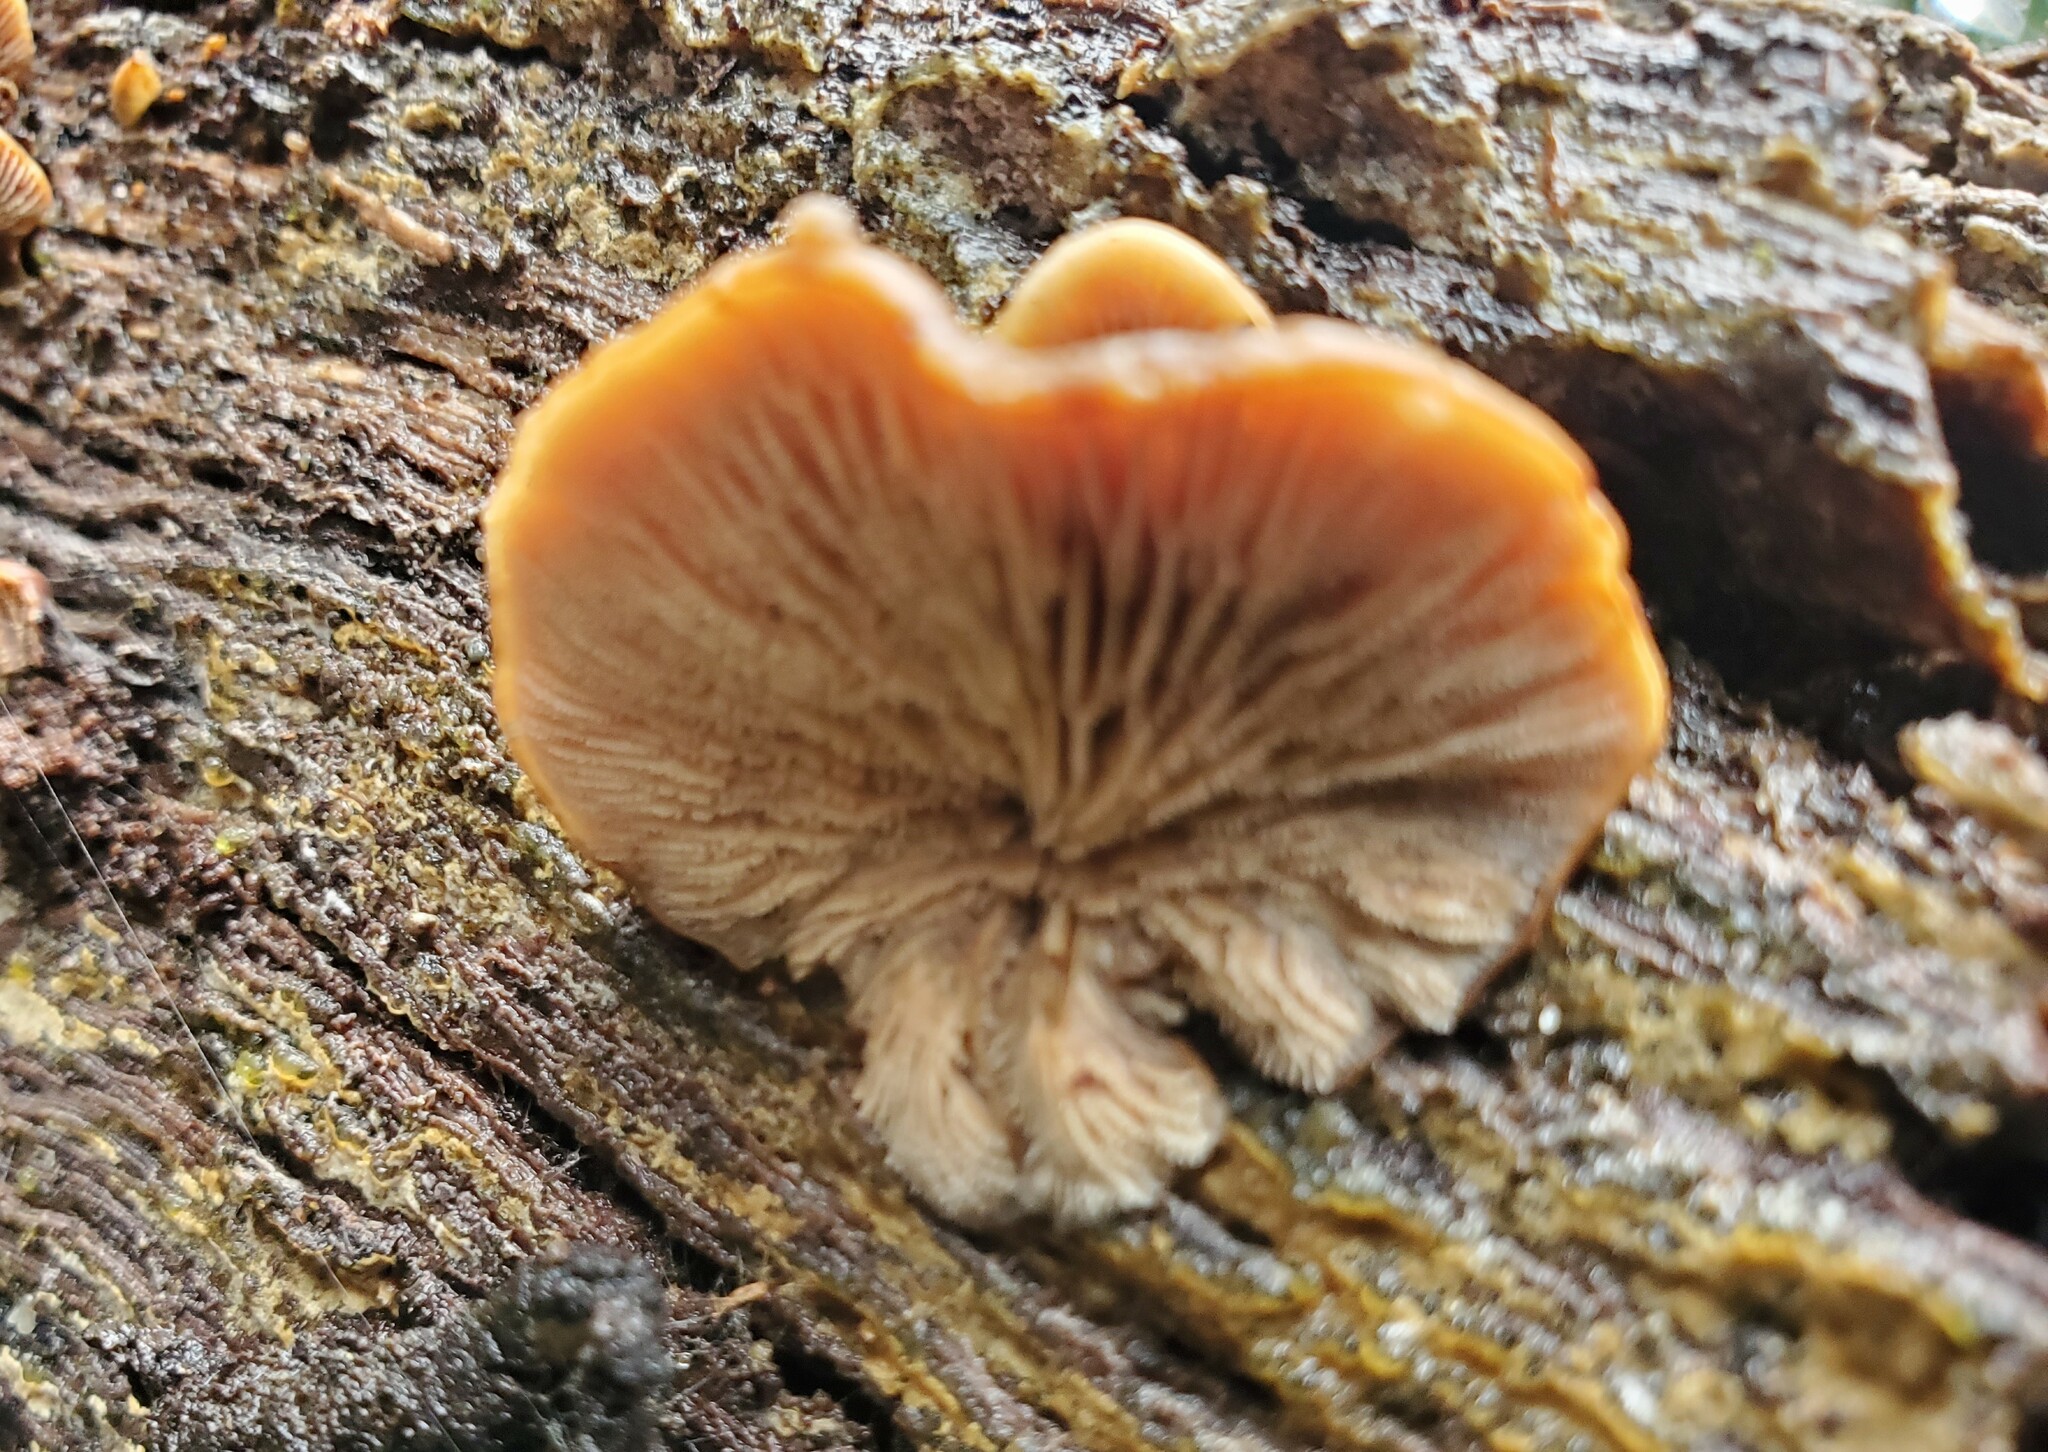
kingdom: Fungi
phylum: Basidiomycota
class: Agaricomycetes
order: Russulales
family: Auriscalpiaceae
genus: Lentinellus
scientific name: Lentinellus ursinus
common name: Bear lentinus
